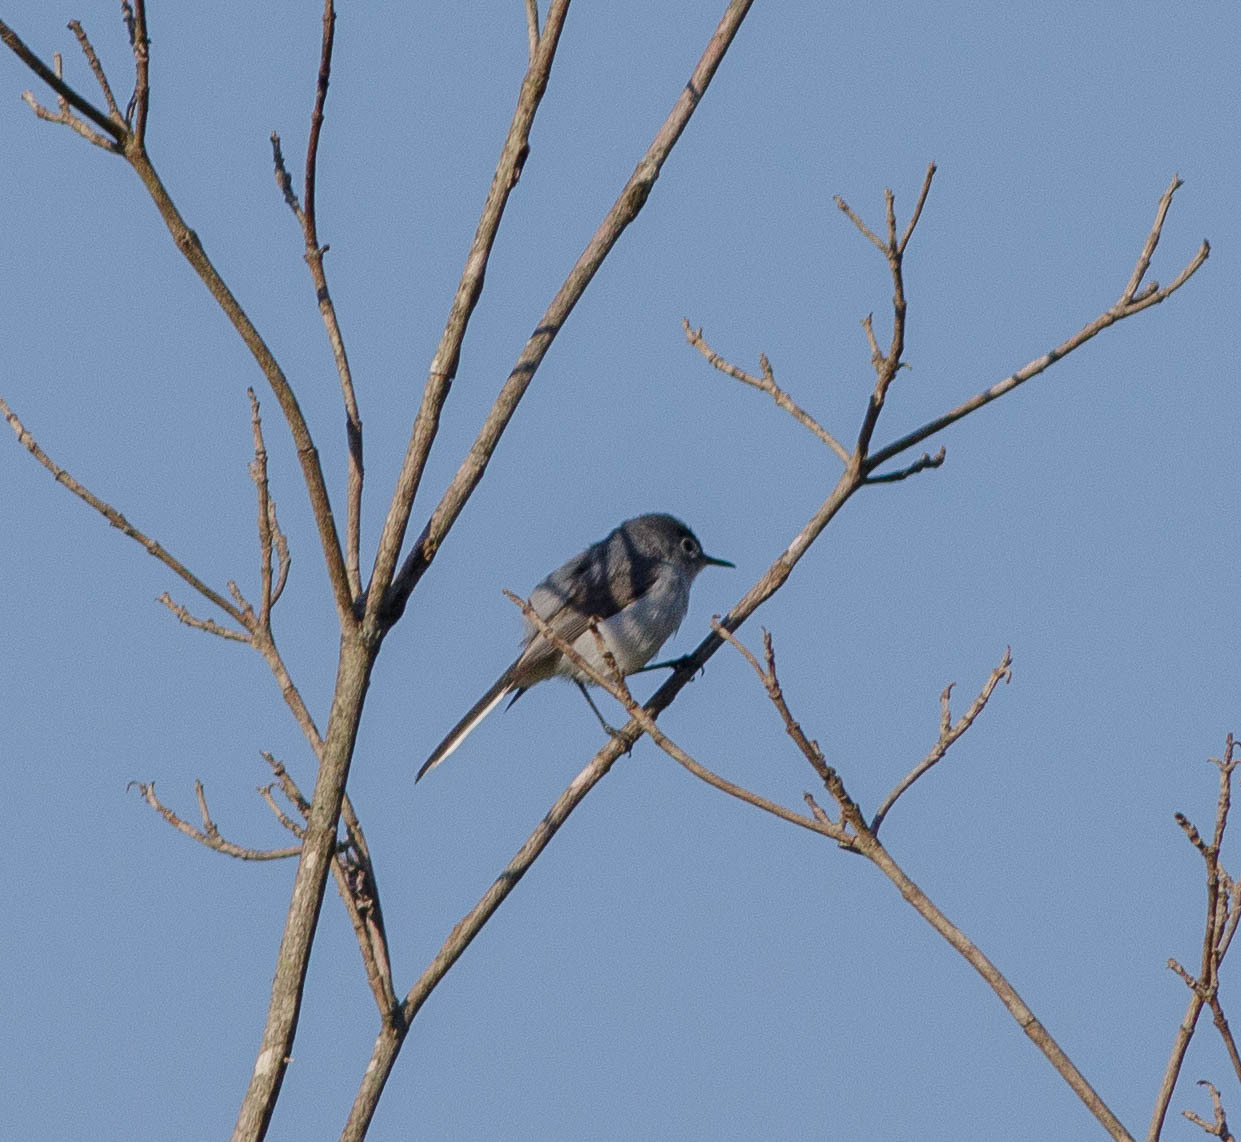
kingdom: Animalia
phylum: Chordata
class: Aves
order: Passeriformes
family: Polioptilidae
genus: Polioptila
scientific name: Polioptila caerulea
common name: Blue-gray gnatcatcher
